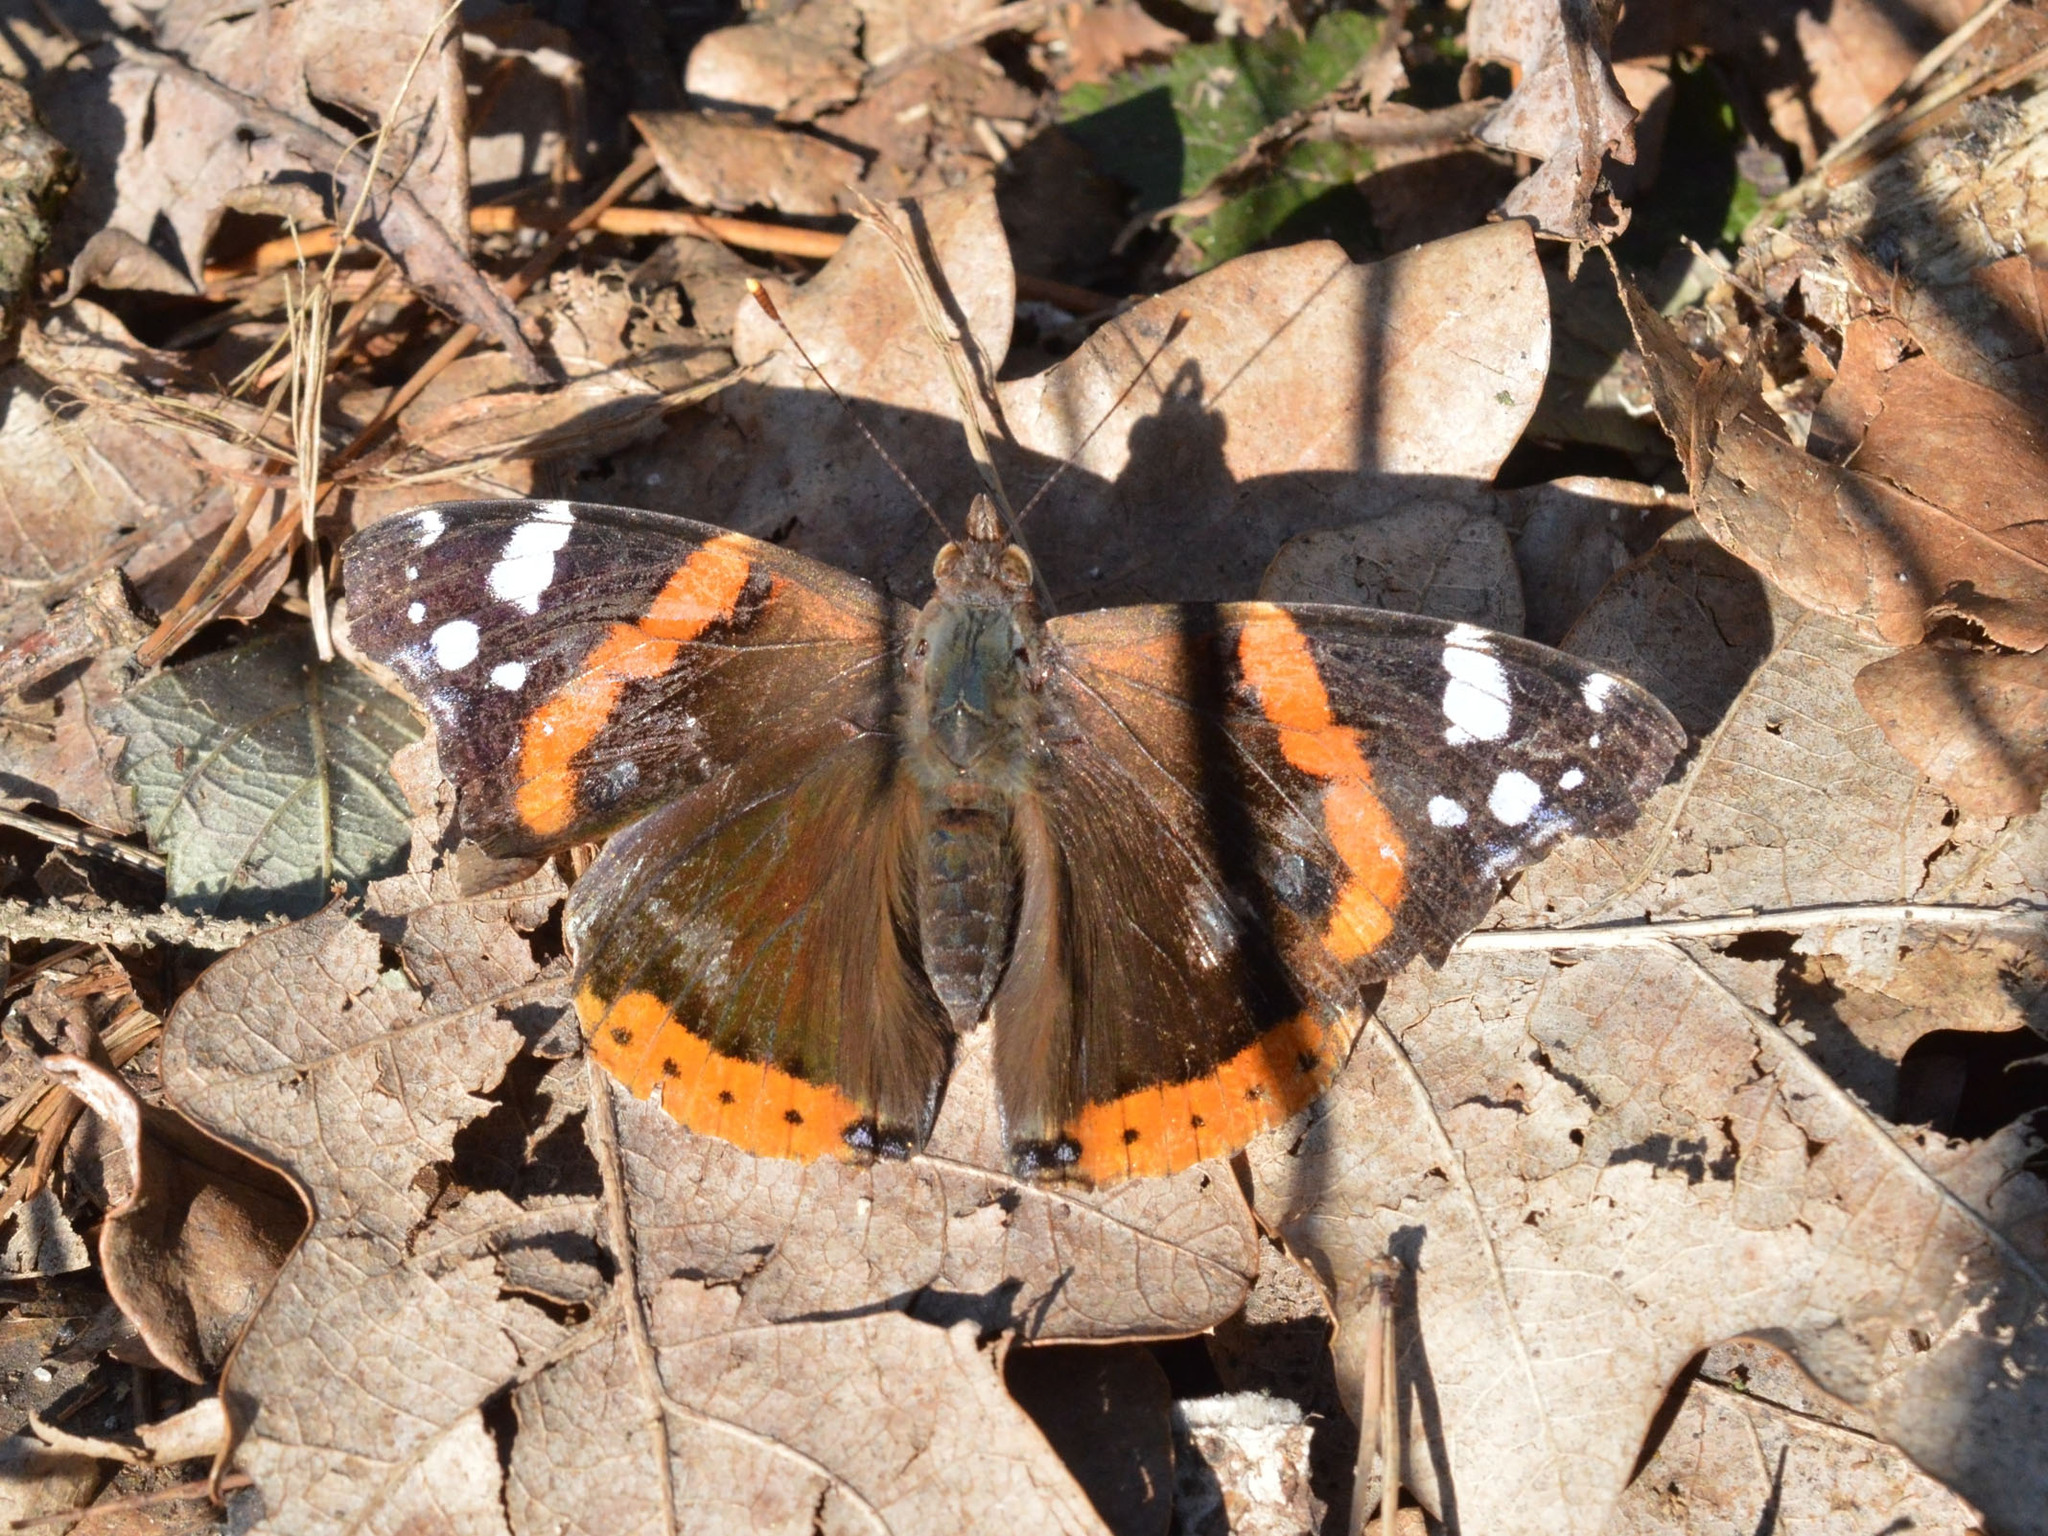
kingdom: Animalia
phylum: Arthropoda
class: Insecta
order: Lepidoptera
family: Nymphalidae
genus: Vanessa
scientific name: Vanessa atalanta
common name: Red admiral
